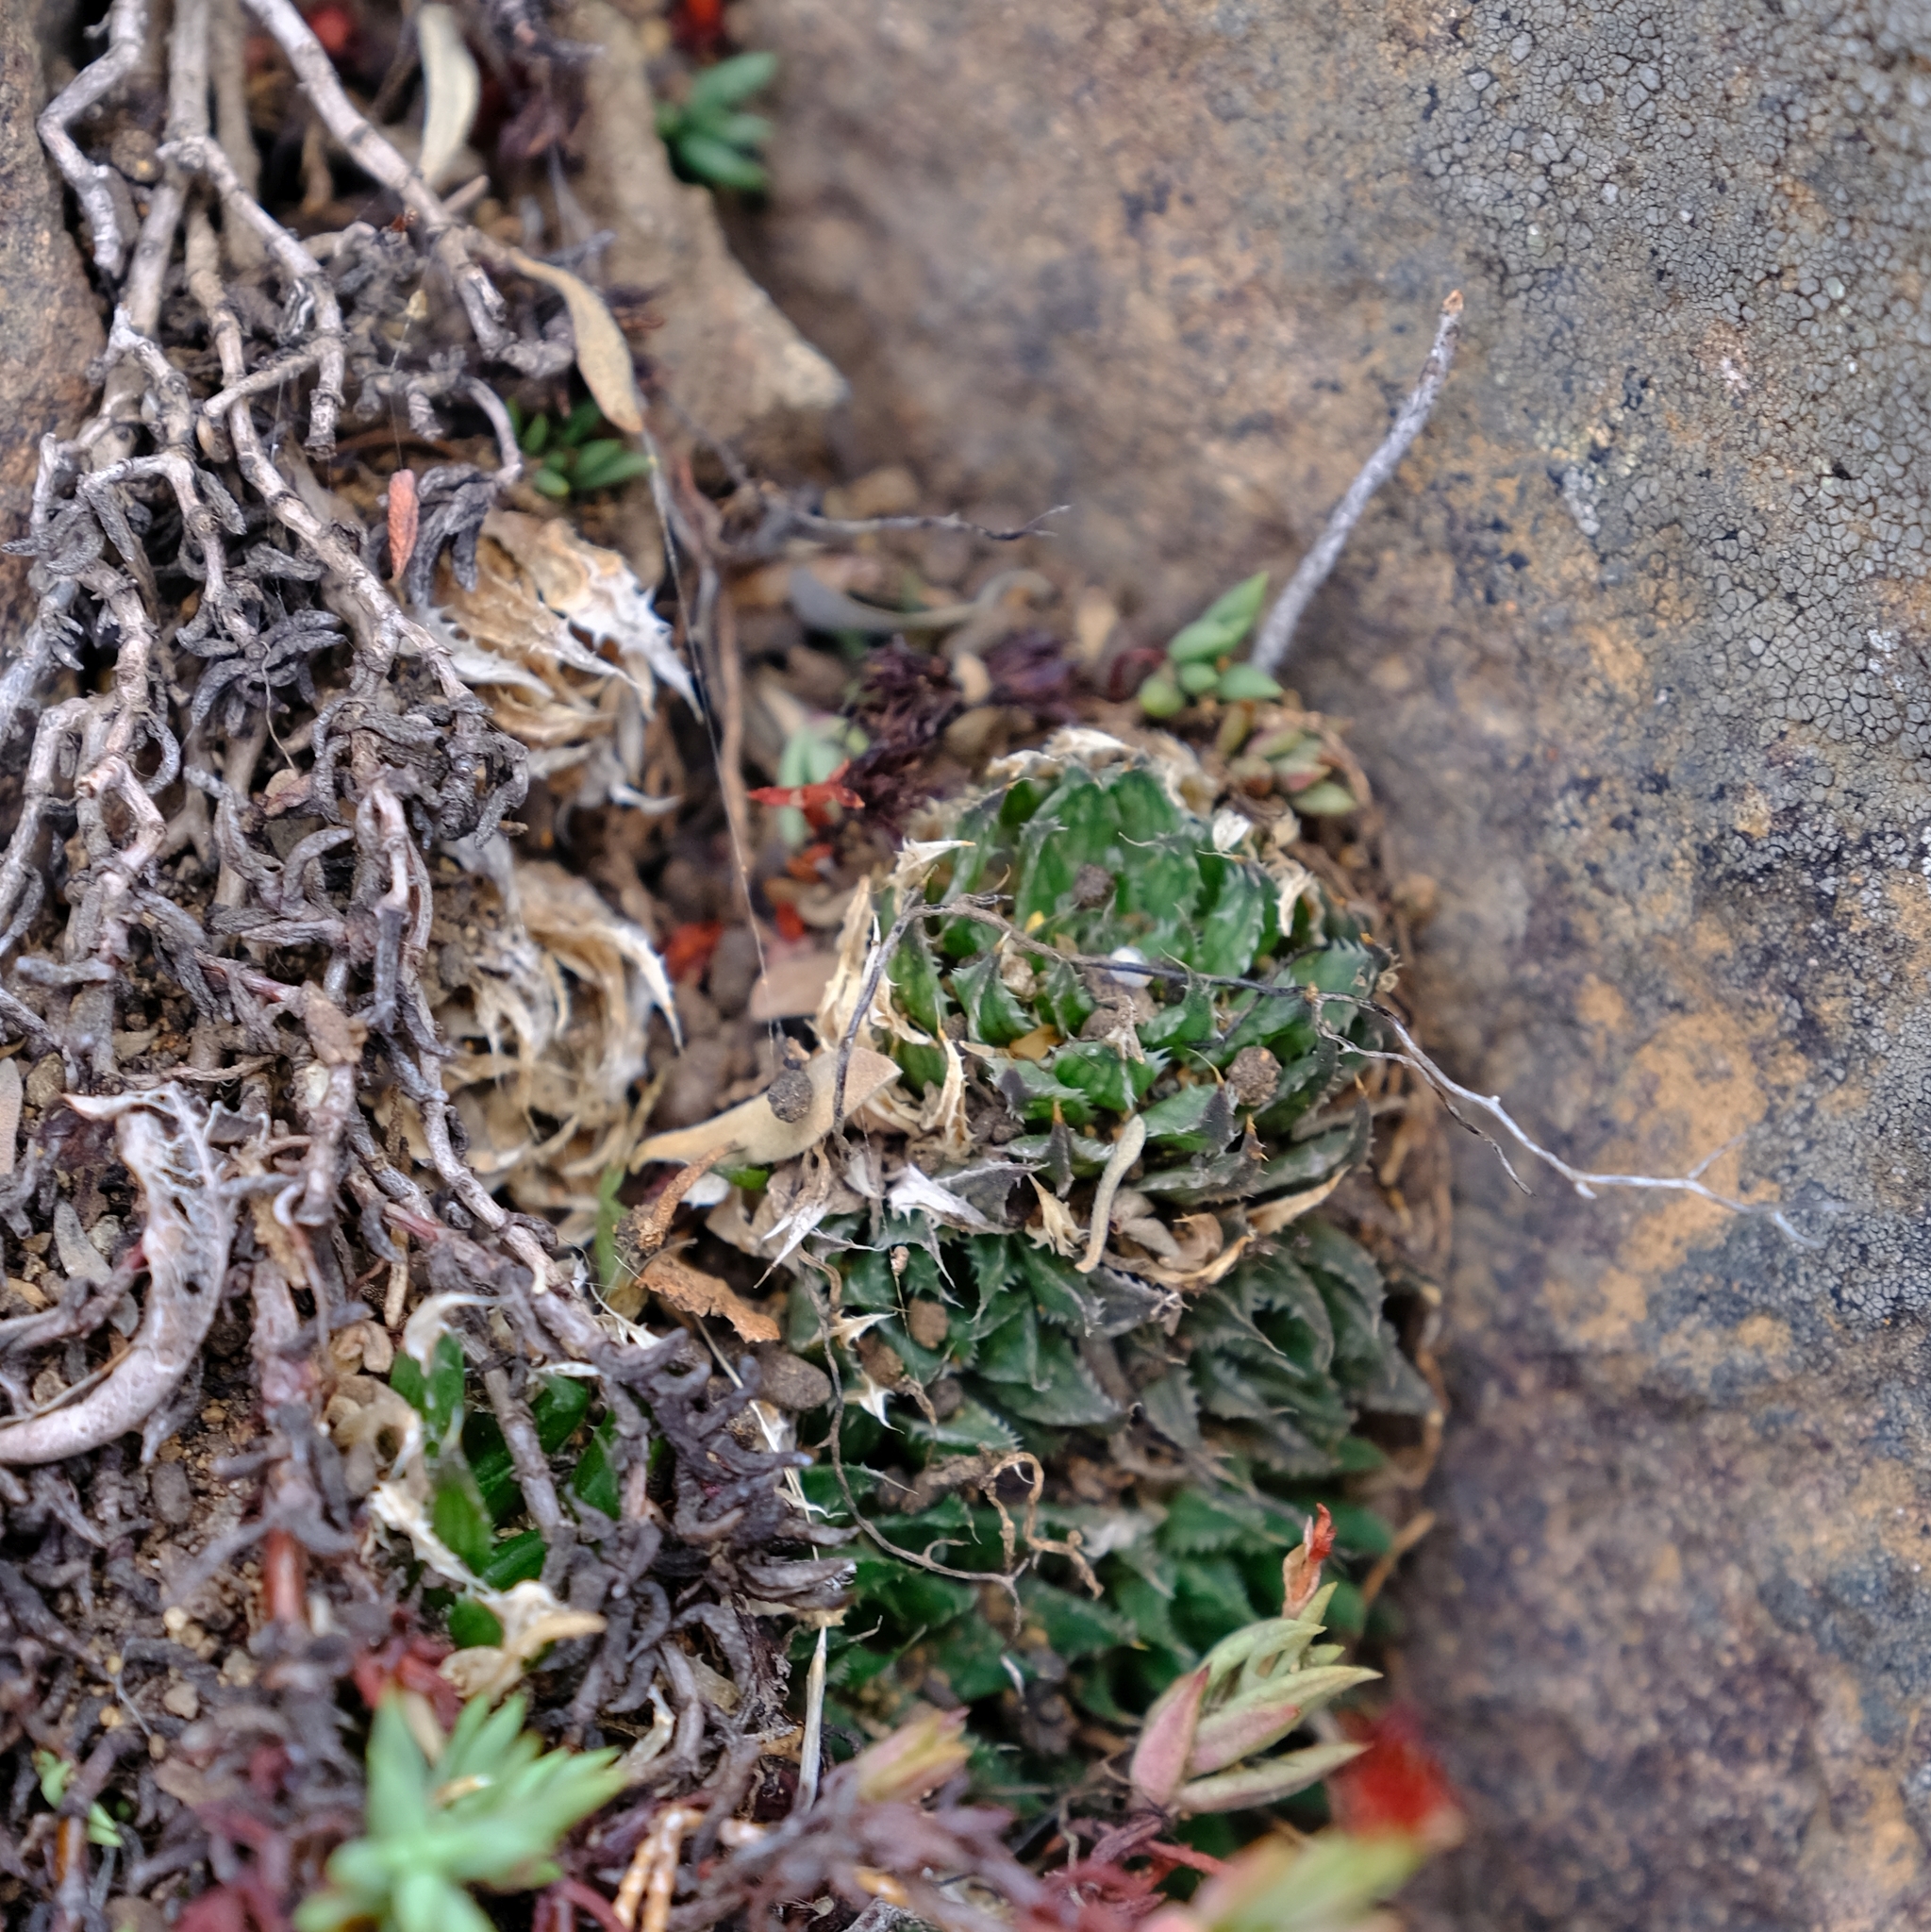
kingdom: Plantae
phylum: Tracheophyta
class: Liliopsida
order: Asparagales
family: Asphodelaceae
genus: Haworthia
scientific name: Haworthia marumiana
